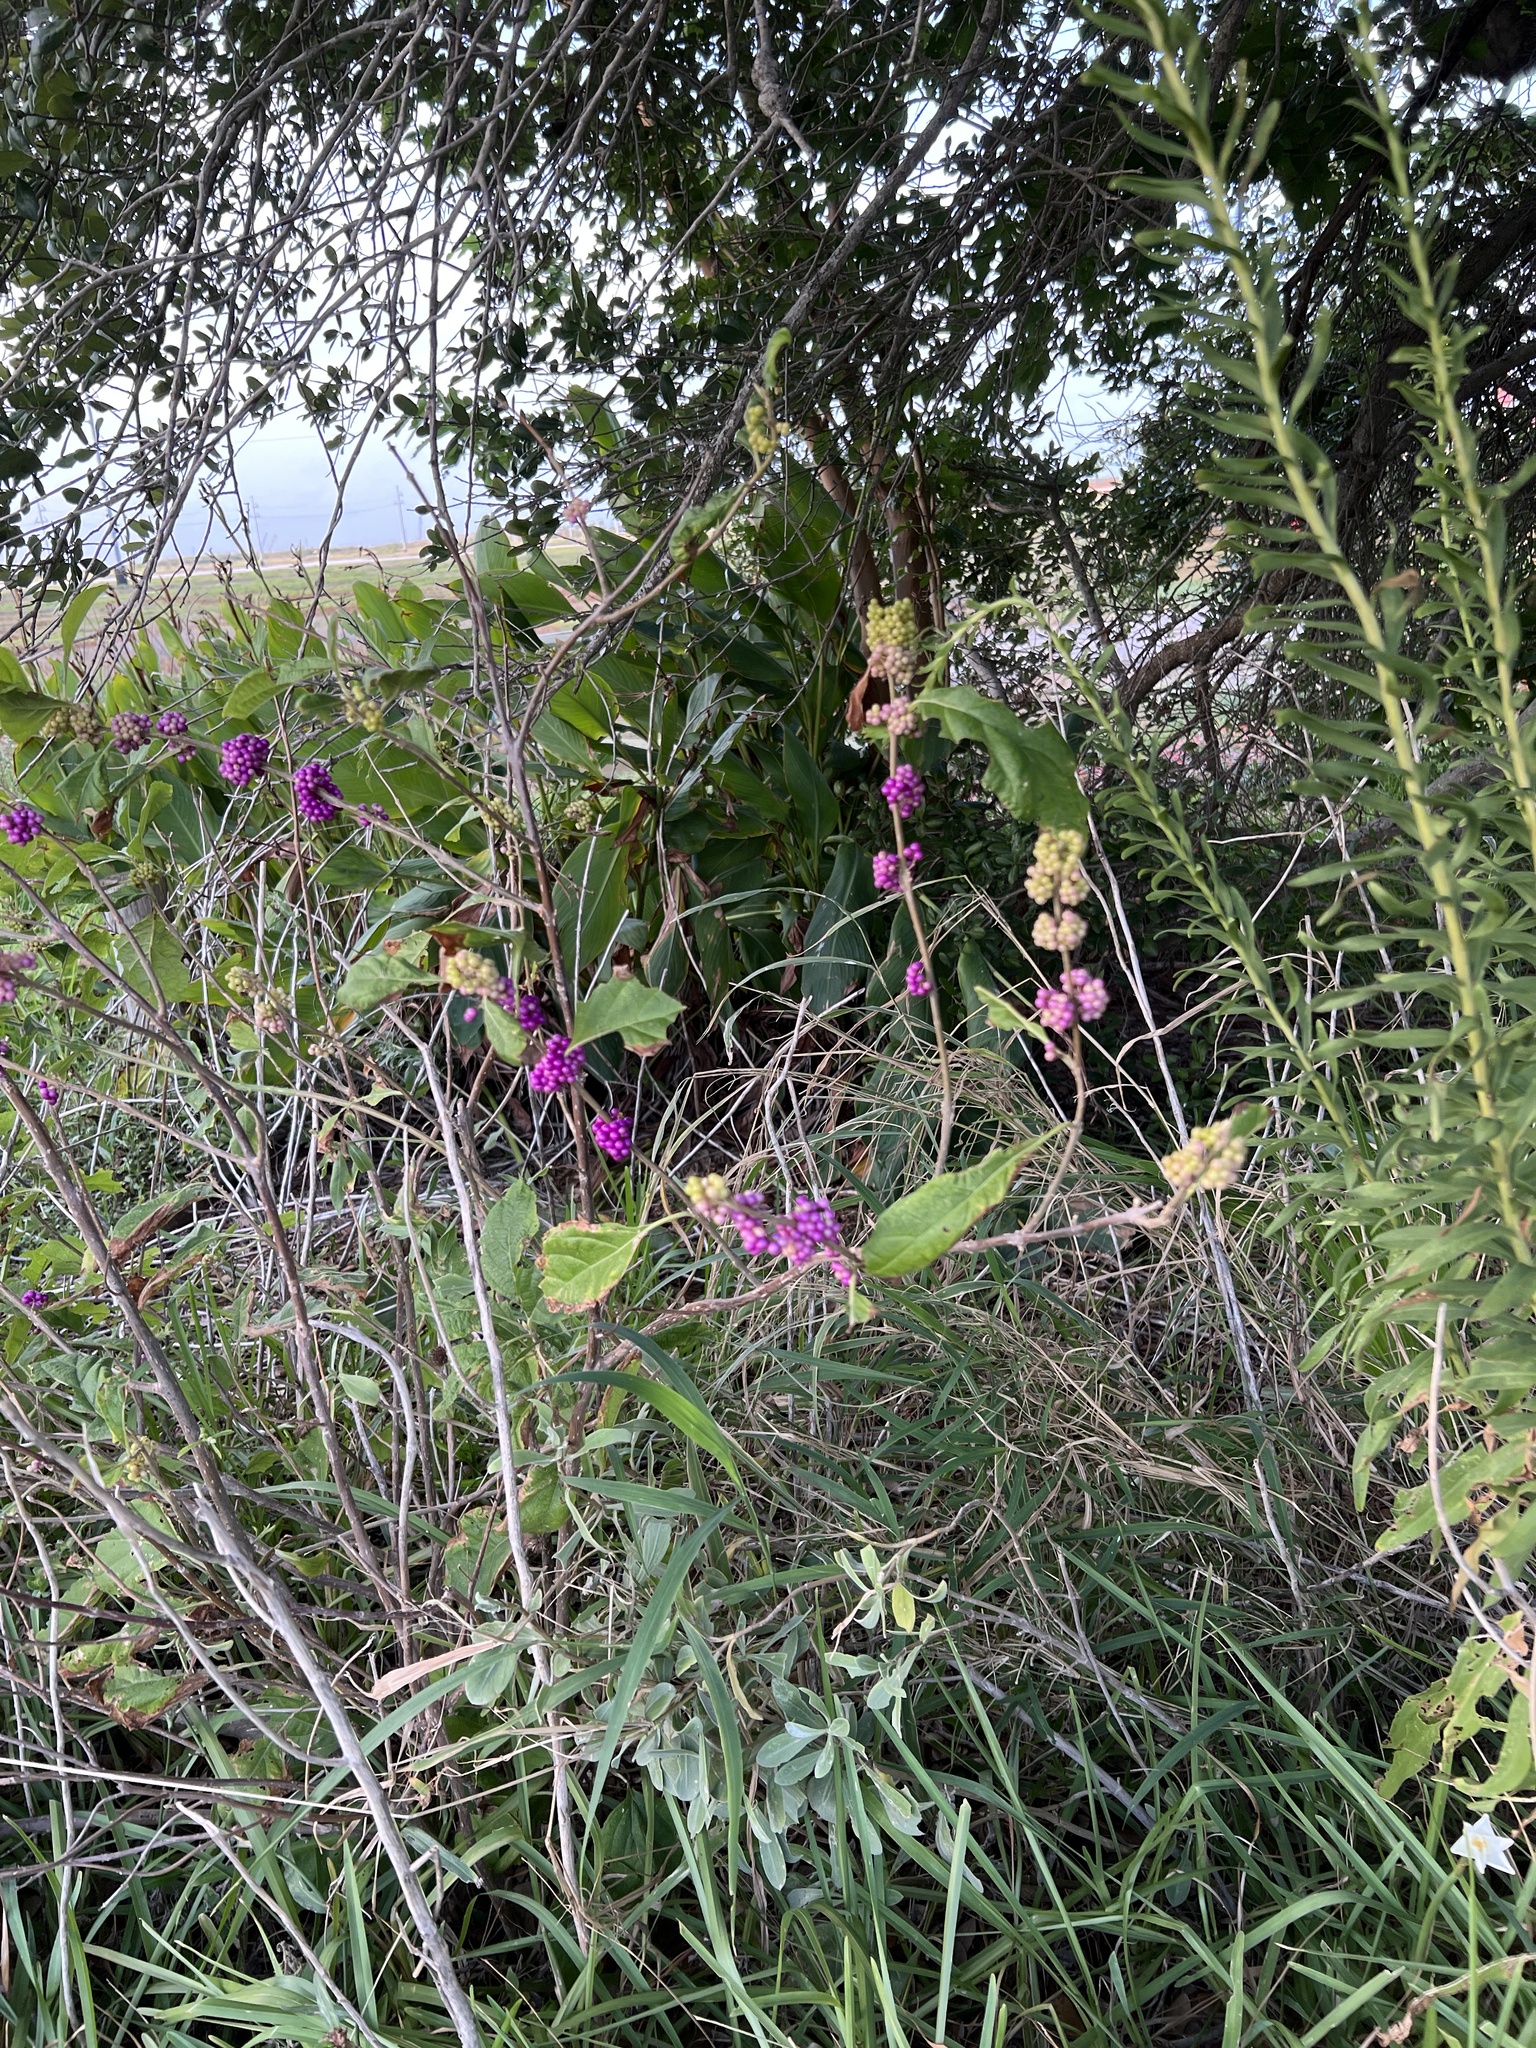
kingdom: Plantae
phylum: Tracheophyta
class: Magnoliopsida
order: Lamiales
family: Lamiaceae
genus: Callicarpa
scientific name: Callicarpa americana
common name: American beautyberry
